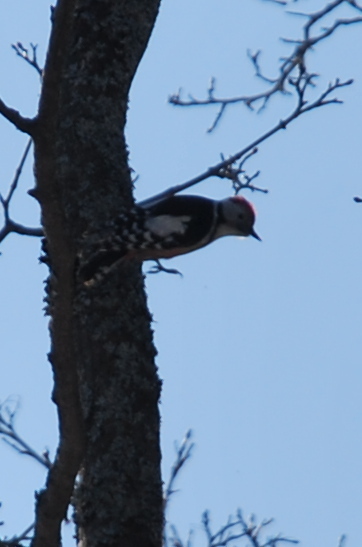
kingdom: Animalia
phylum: Chordata
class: Aves
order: Piciformes
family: Picidae
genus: Dendrocoptes
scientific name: Dendrocoptes medius
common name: Middle spotted woodpecker
